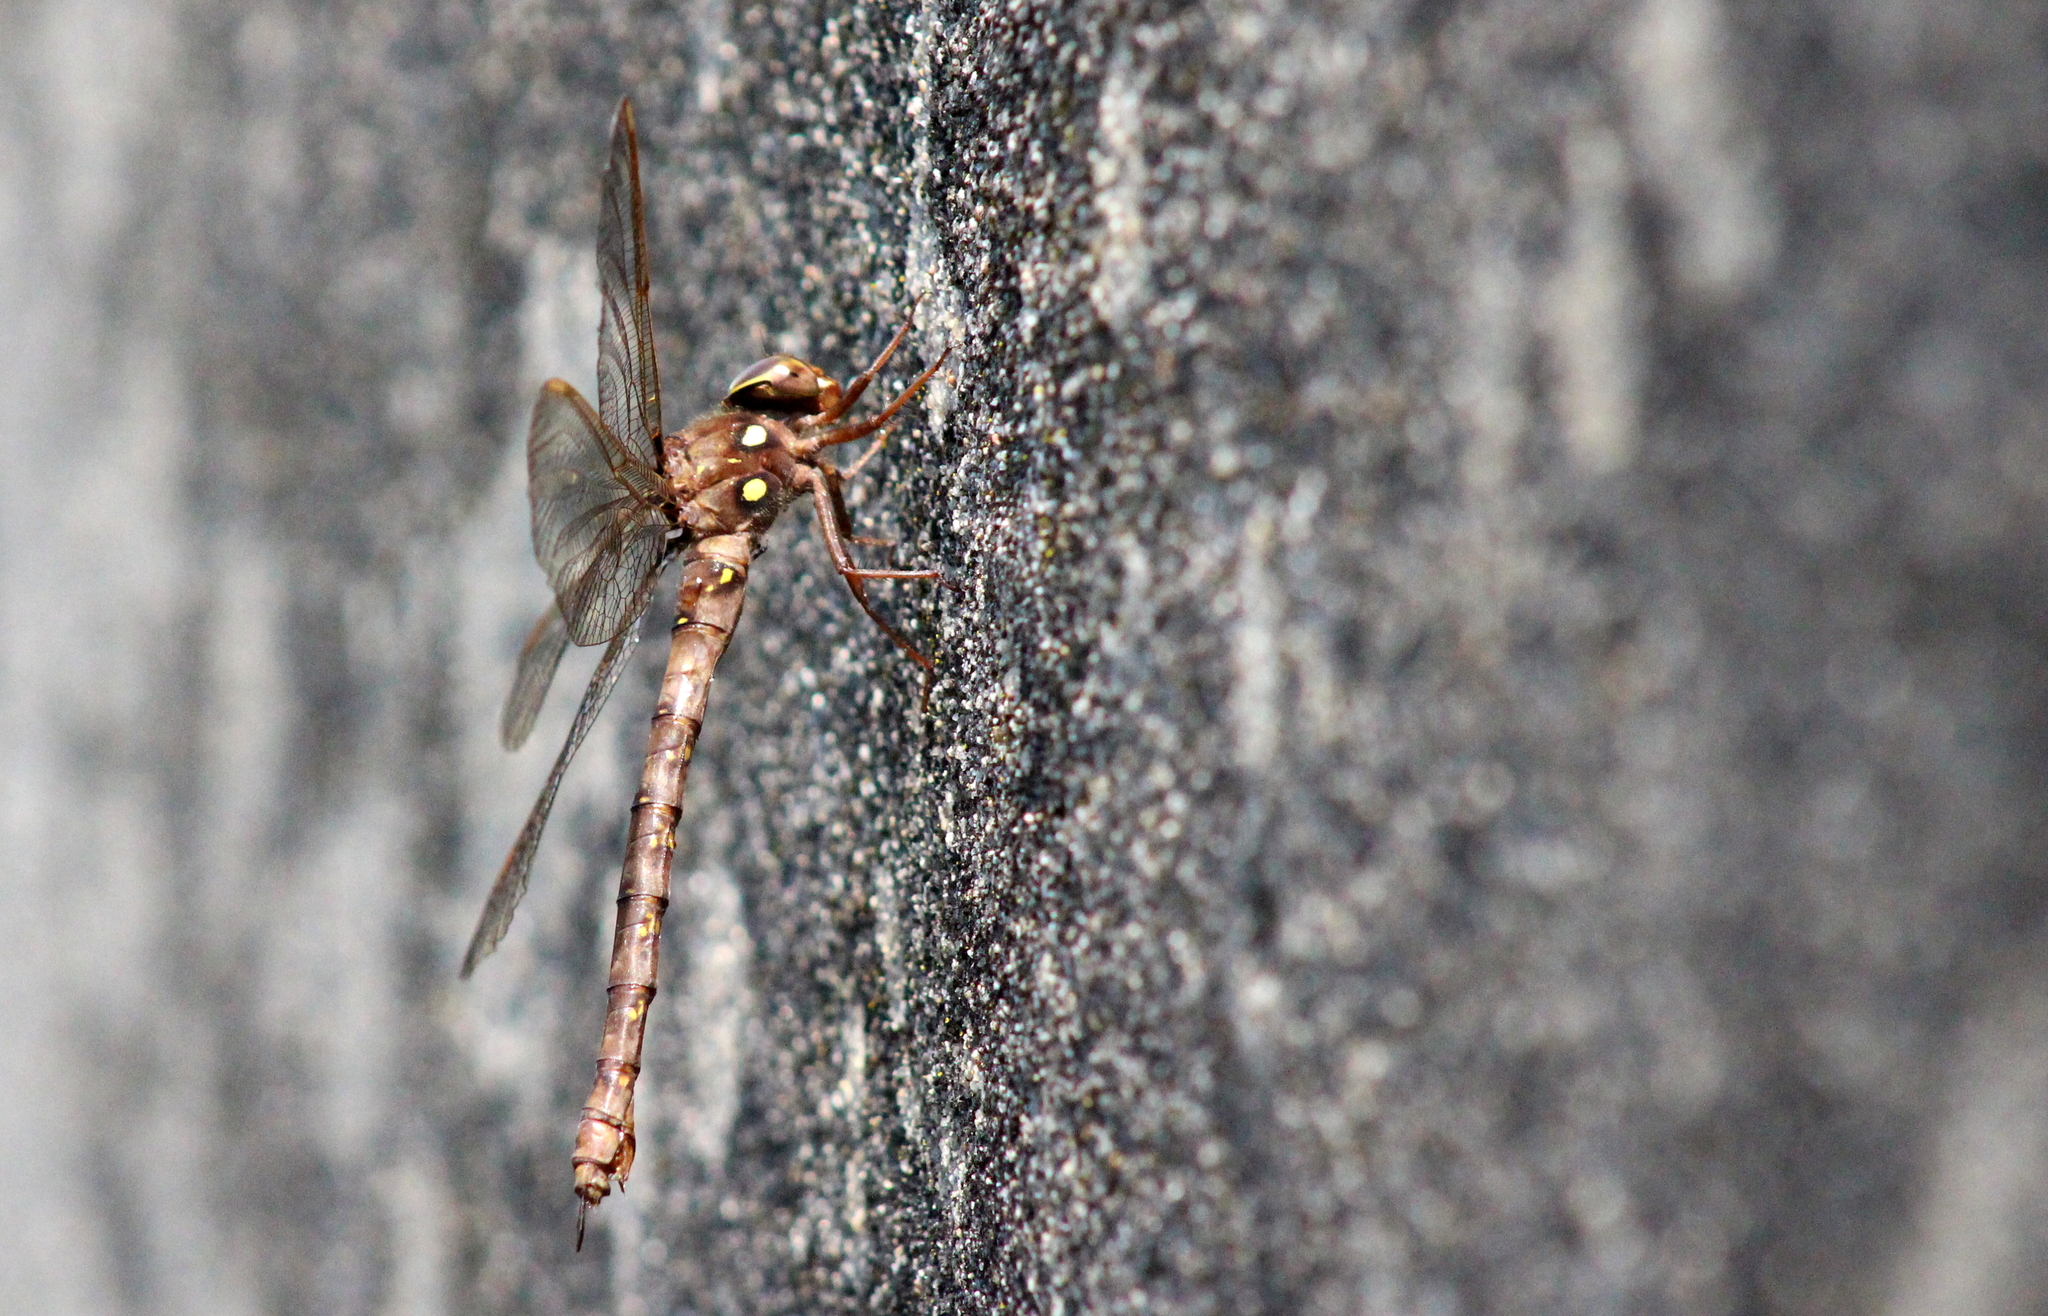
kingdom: Animalia
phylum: Arthropoda
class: Insecta
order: Odonata
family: Aeshnidae
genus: Boyeria
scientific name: Boyeria vinosa
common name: Fawn darner
